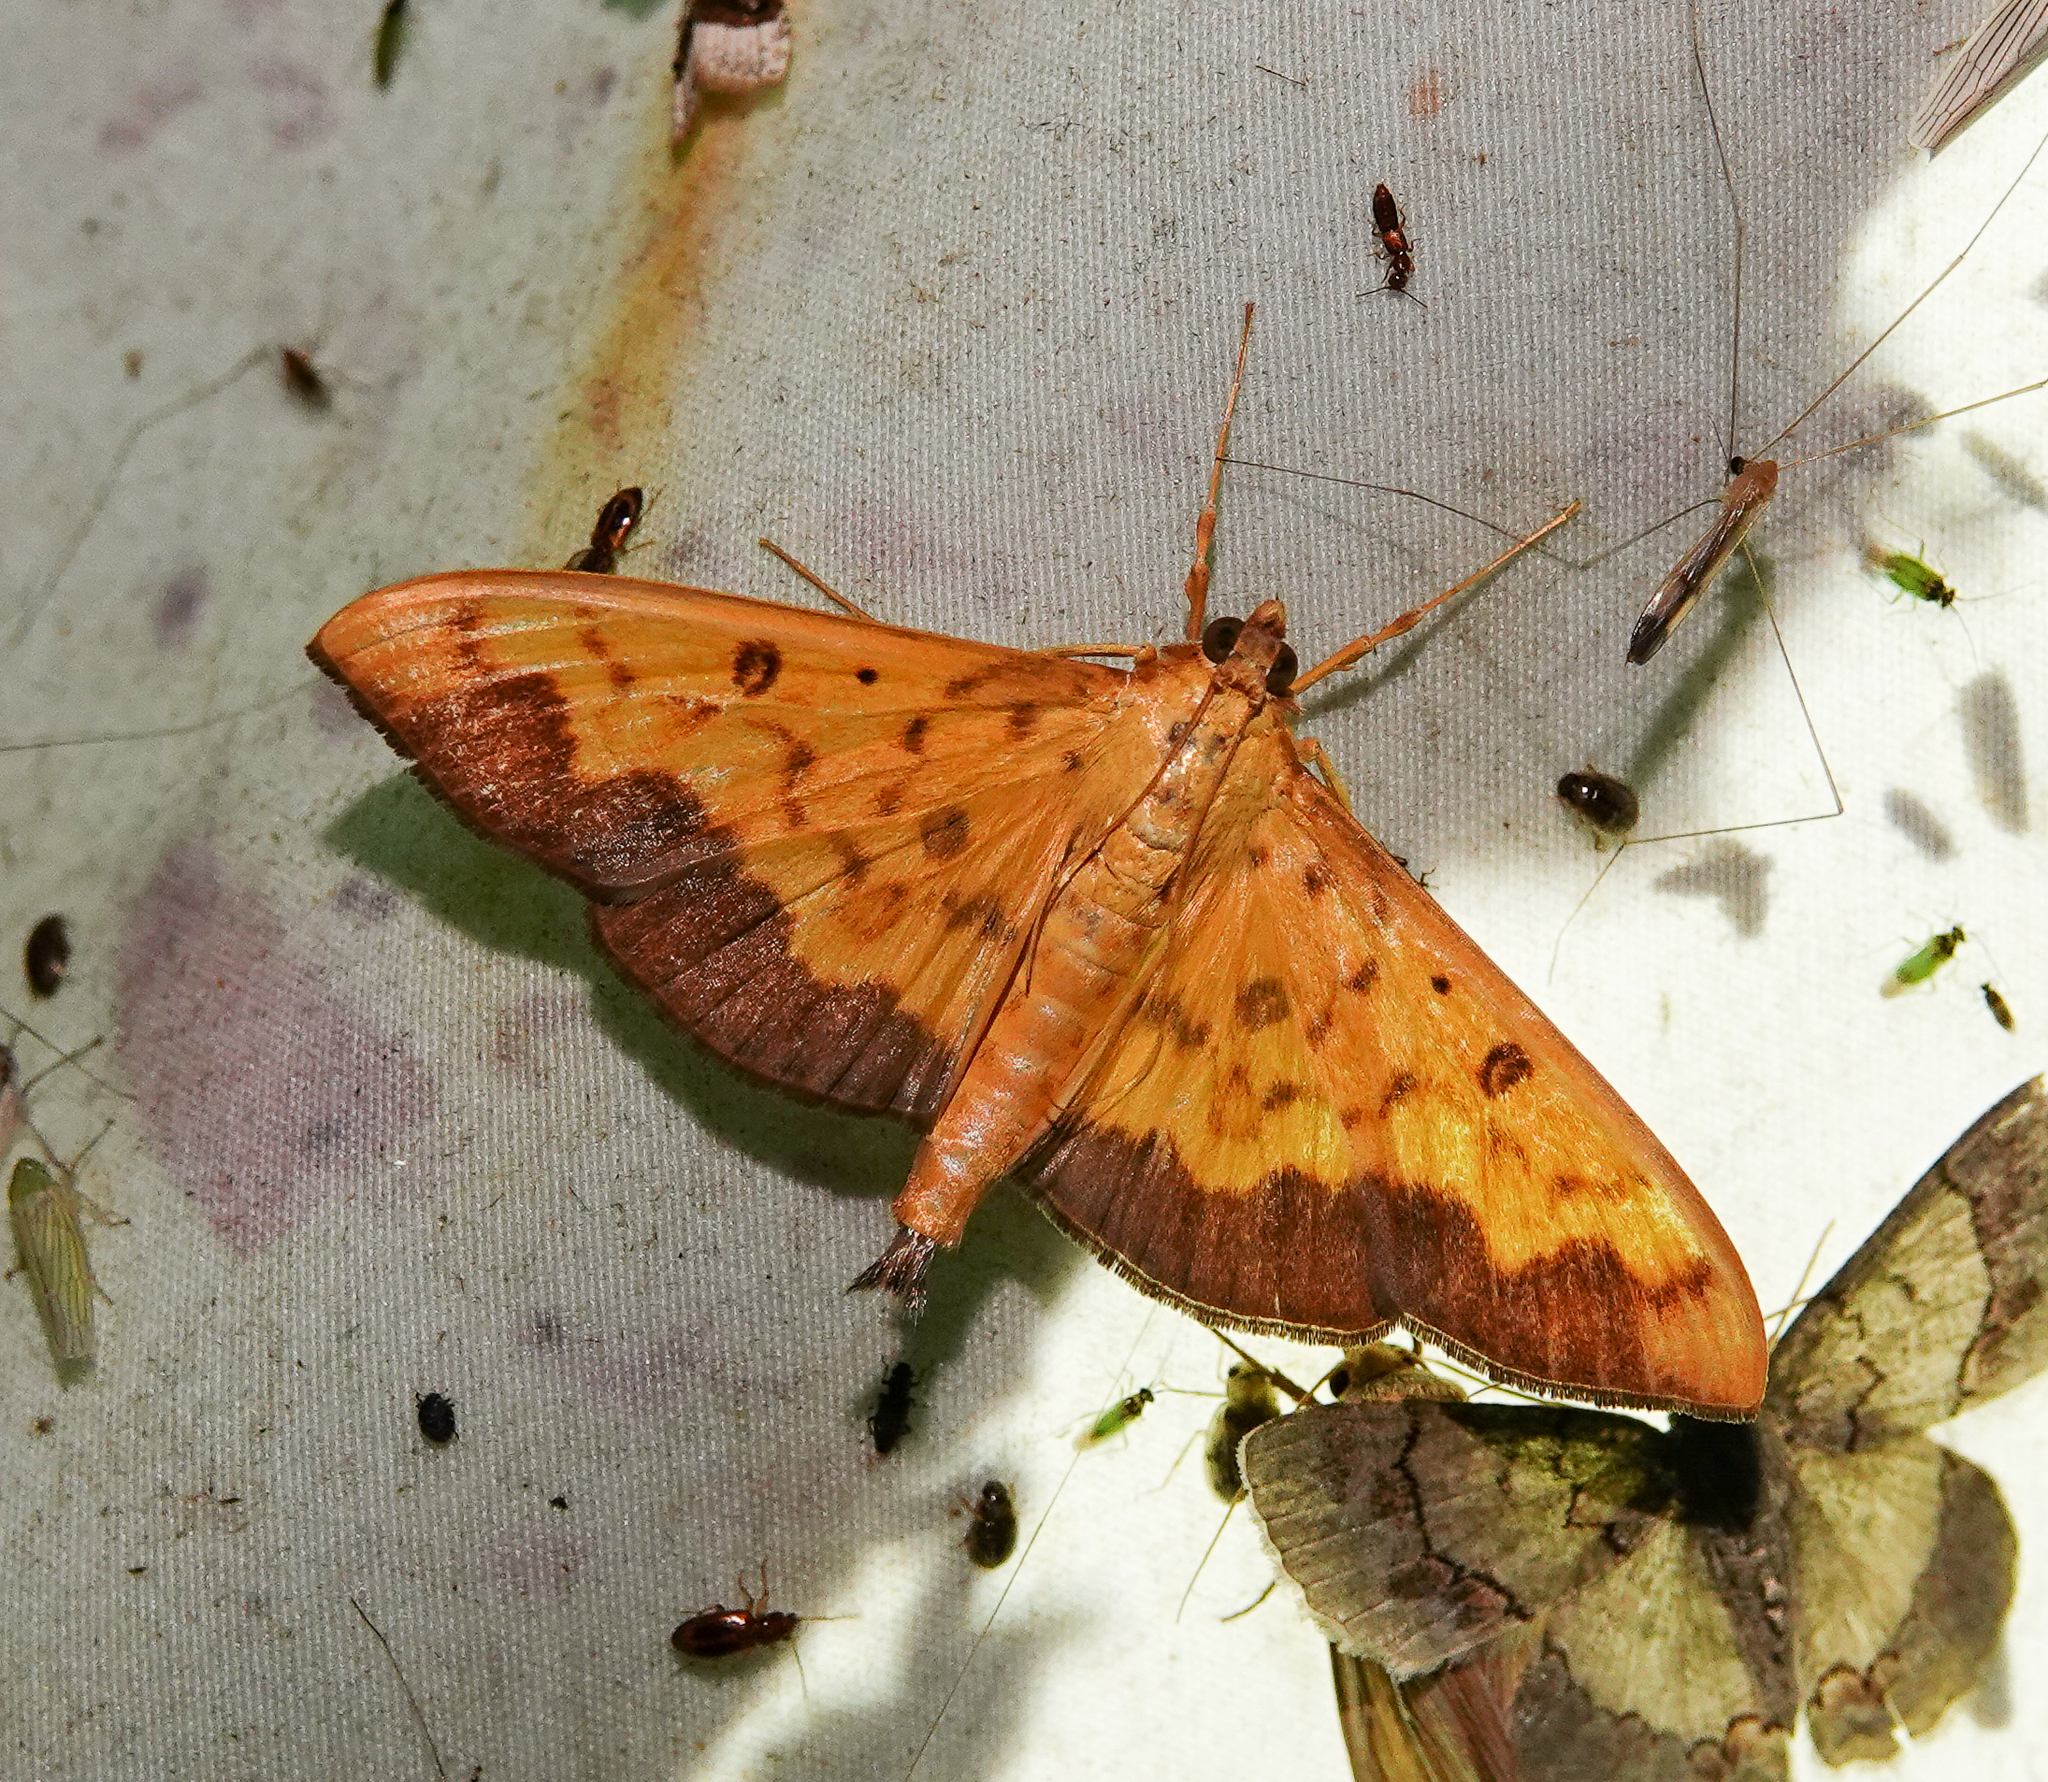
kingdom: Animalia
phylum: Arthropoda
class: Insecta
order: Lepidoptera
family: Crambidae
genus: Botyodes
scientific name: Botyodes asialis
